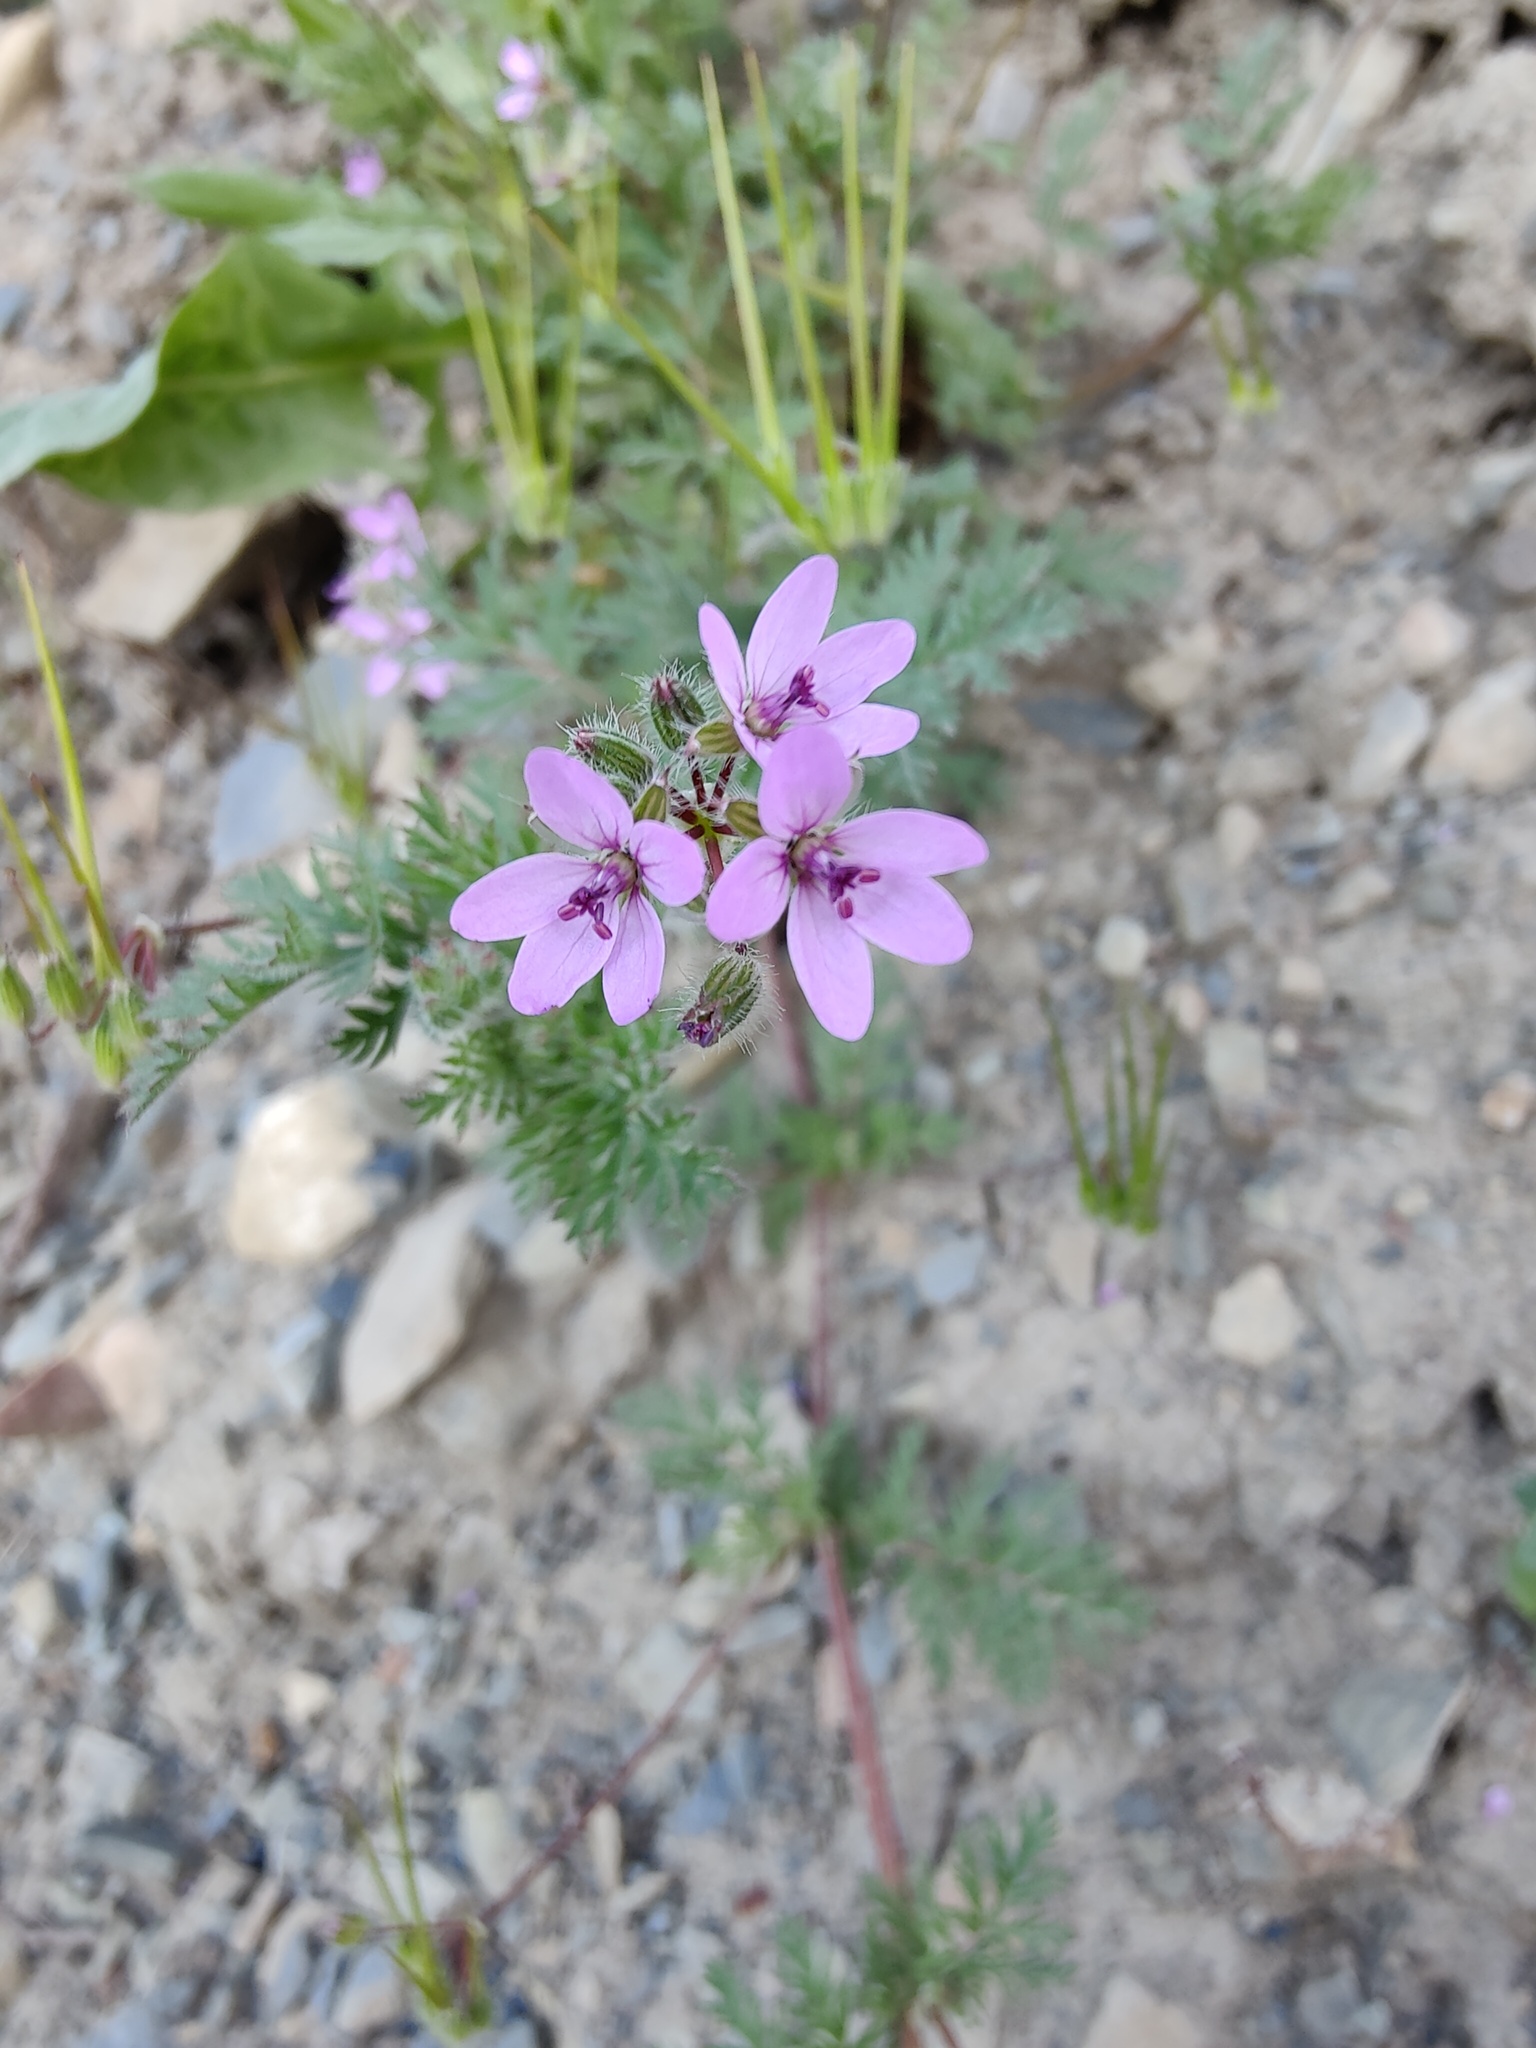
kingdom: Plantae
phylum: Tracheophyta
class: Magnoliopsida
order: Geraniales
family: Geraniaceae
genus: Erodium
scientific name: Erodium cicutarium
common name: Common stork's-bill
